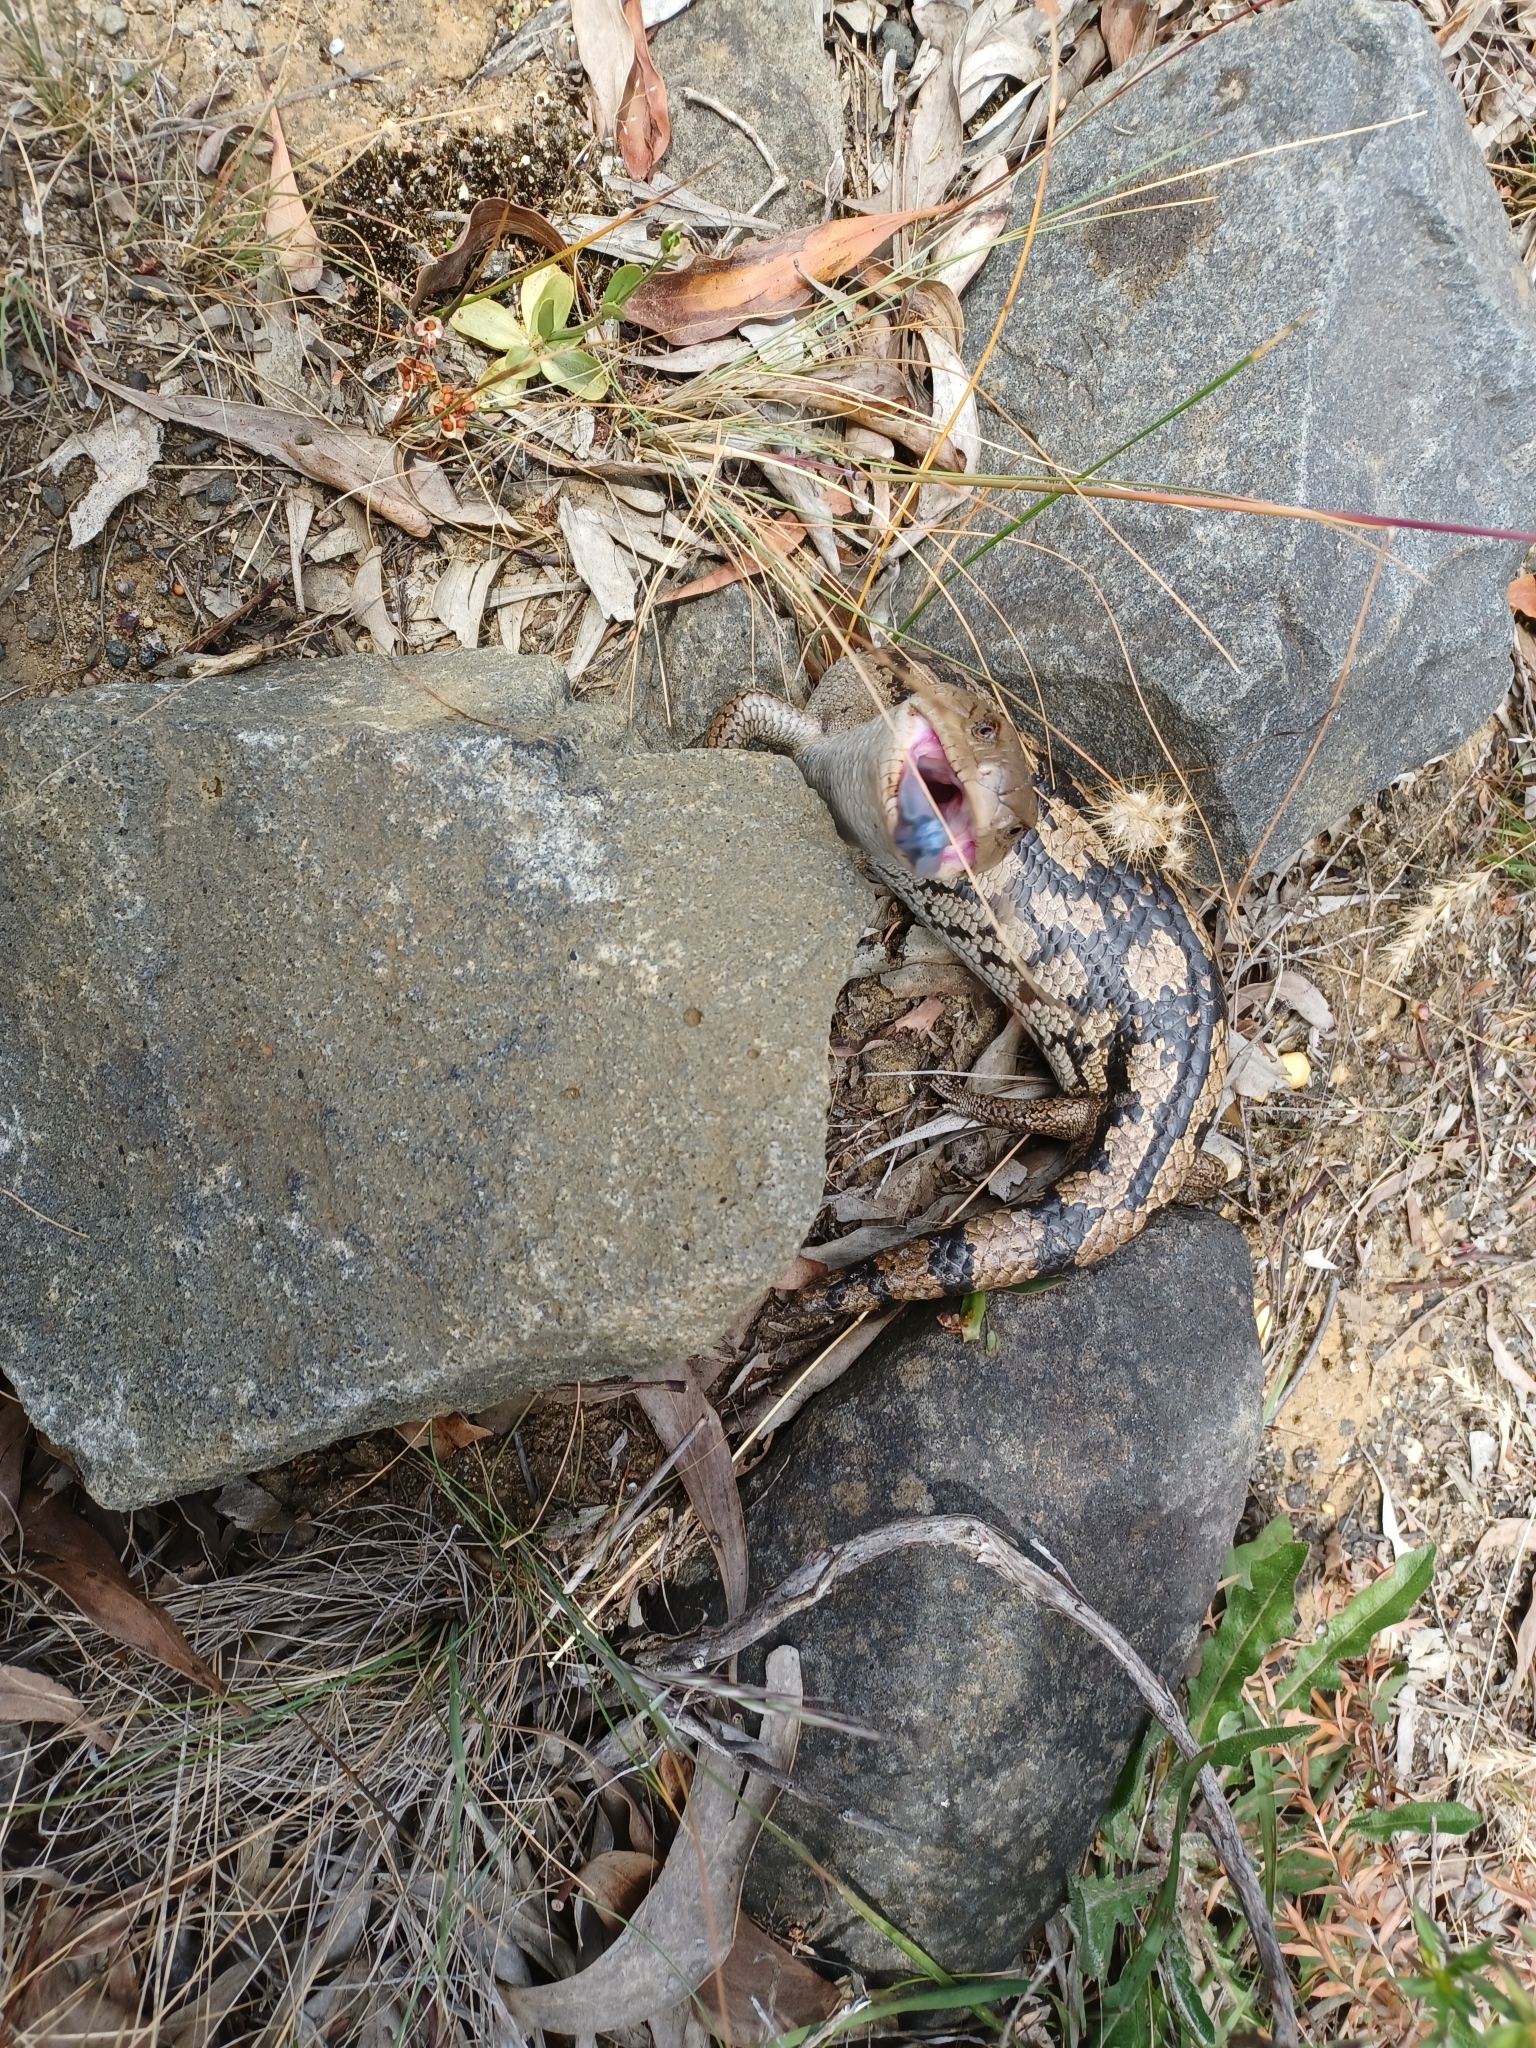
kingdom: Animalia
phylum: Chordata
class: Squamata
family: Scincidae
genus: Tiliqua
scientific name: Tiliqua nigrolutea
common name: Blotched blue-tongued lizard
